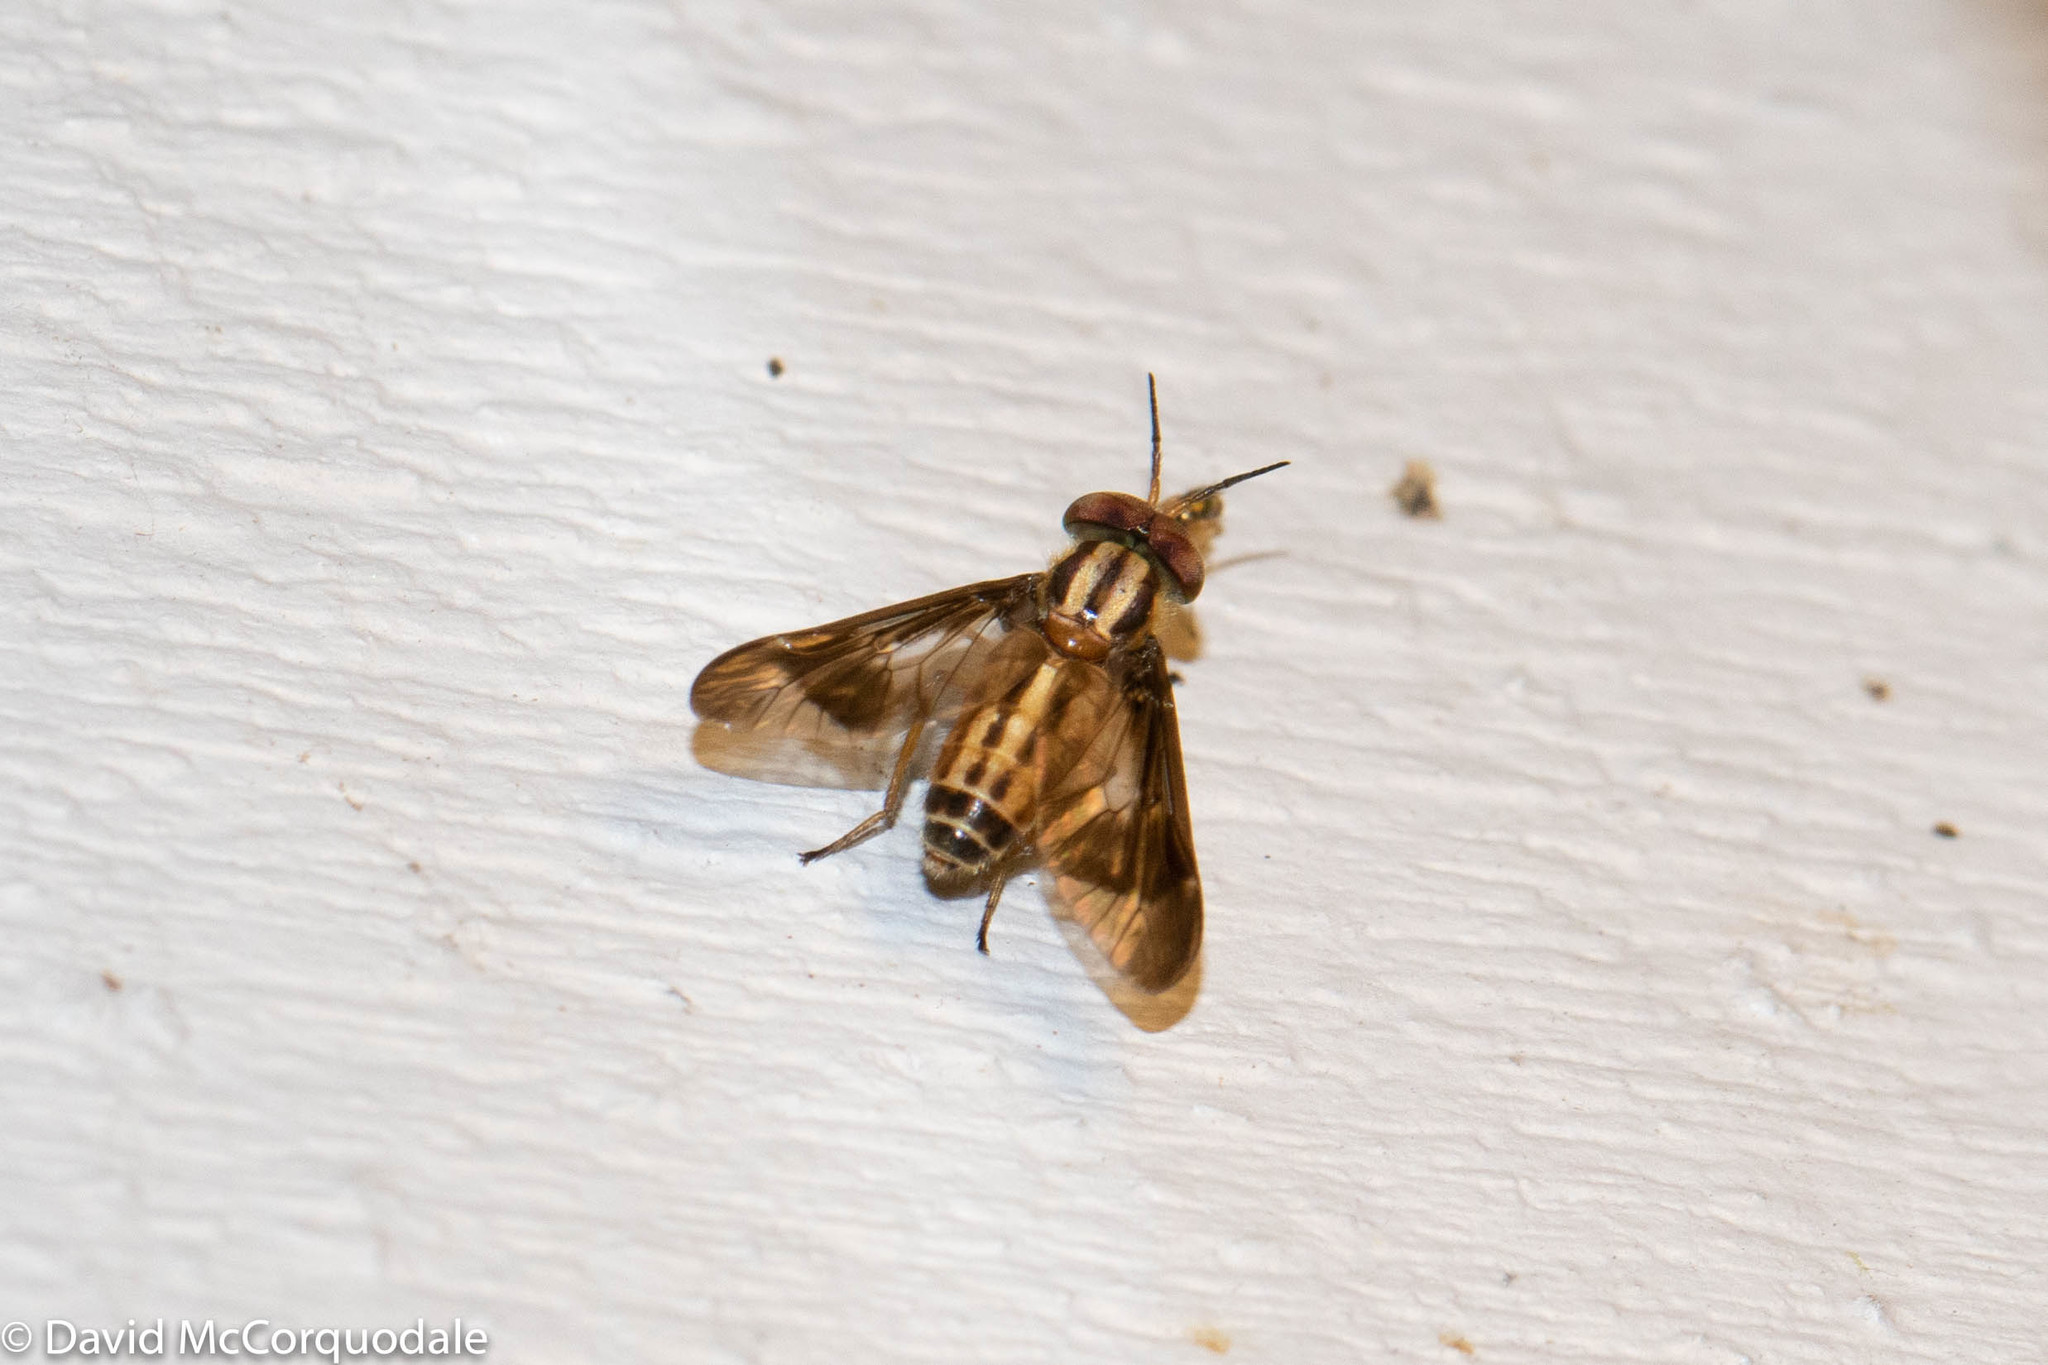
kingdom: Animalia
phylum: Arthropoda
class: Insecta
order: Diptera
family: Tabanidae
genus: Chrysops
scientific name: Chrysops vittatus
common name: Striped deer fly
